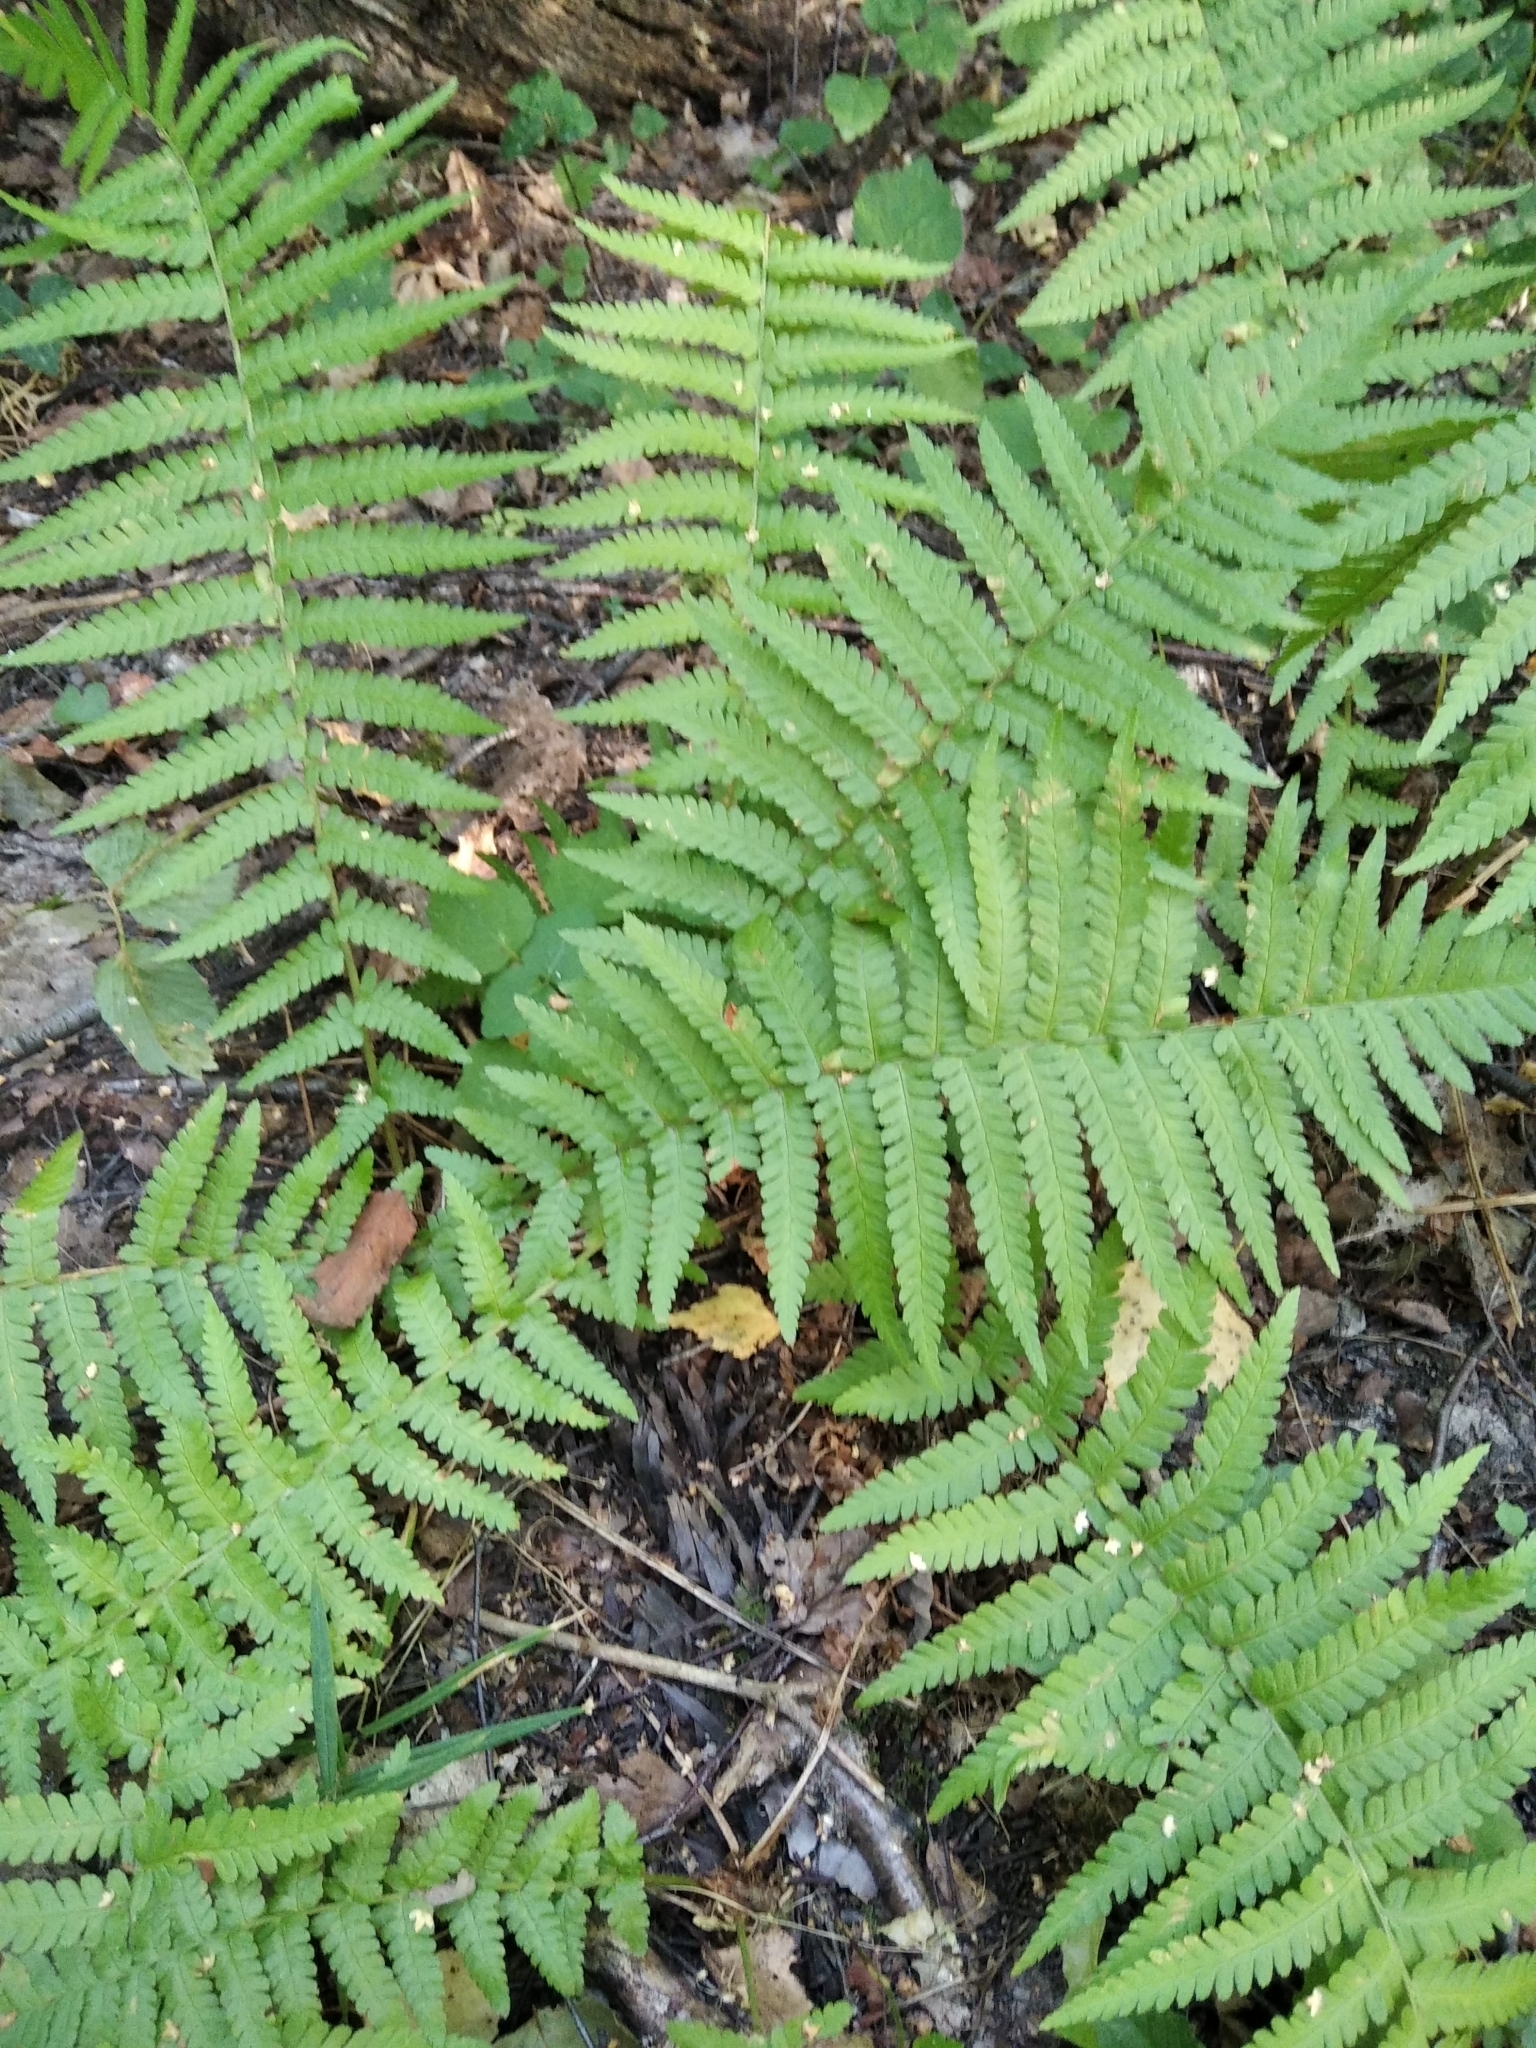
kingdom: Plantae
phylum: Tracheophyta
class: Polypodiopsida
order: Polypodiales
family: Dryopteridaceae
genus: Dryopteris
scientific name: Dryopteris filix-mas
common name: Male fern
